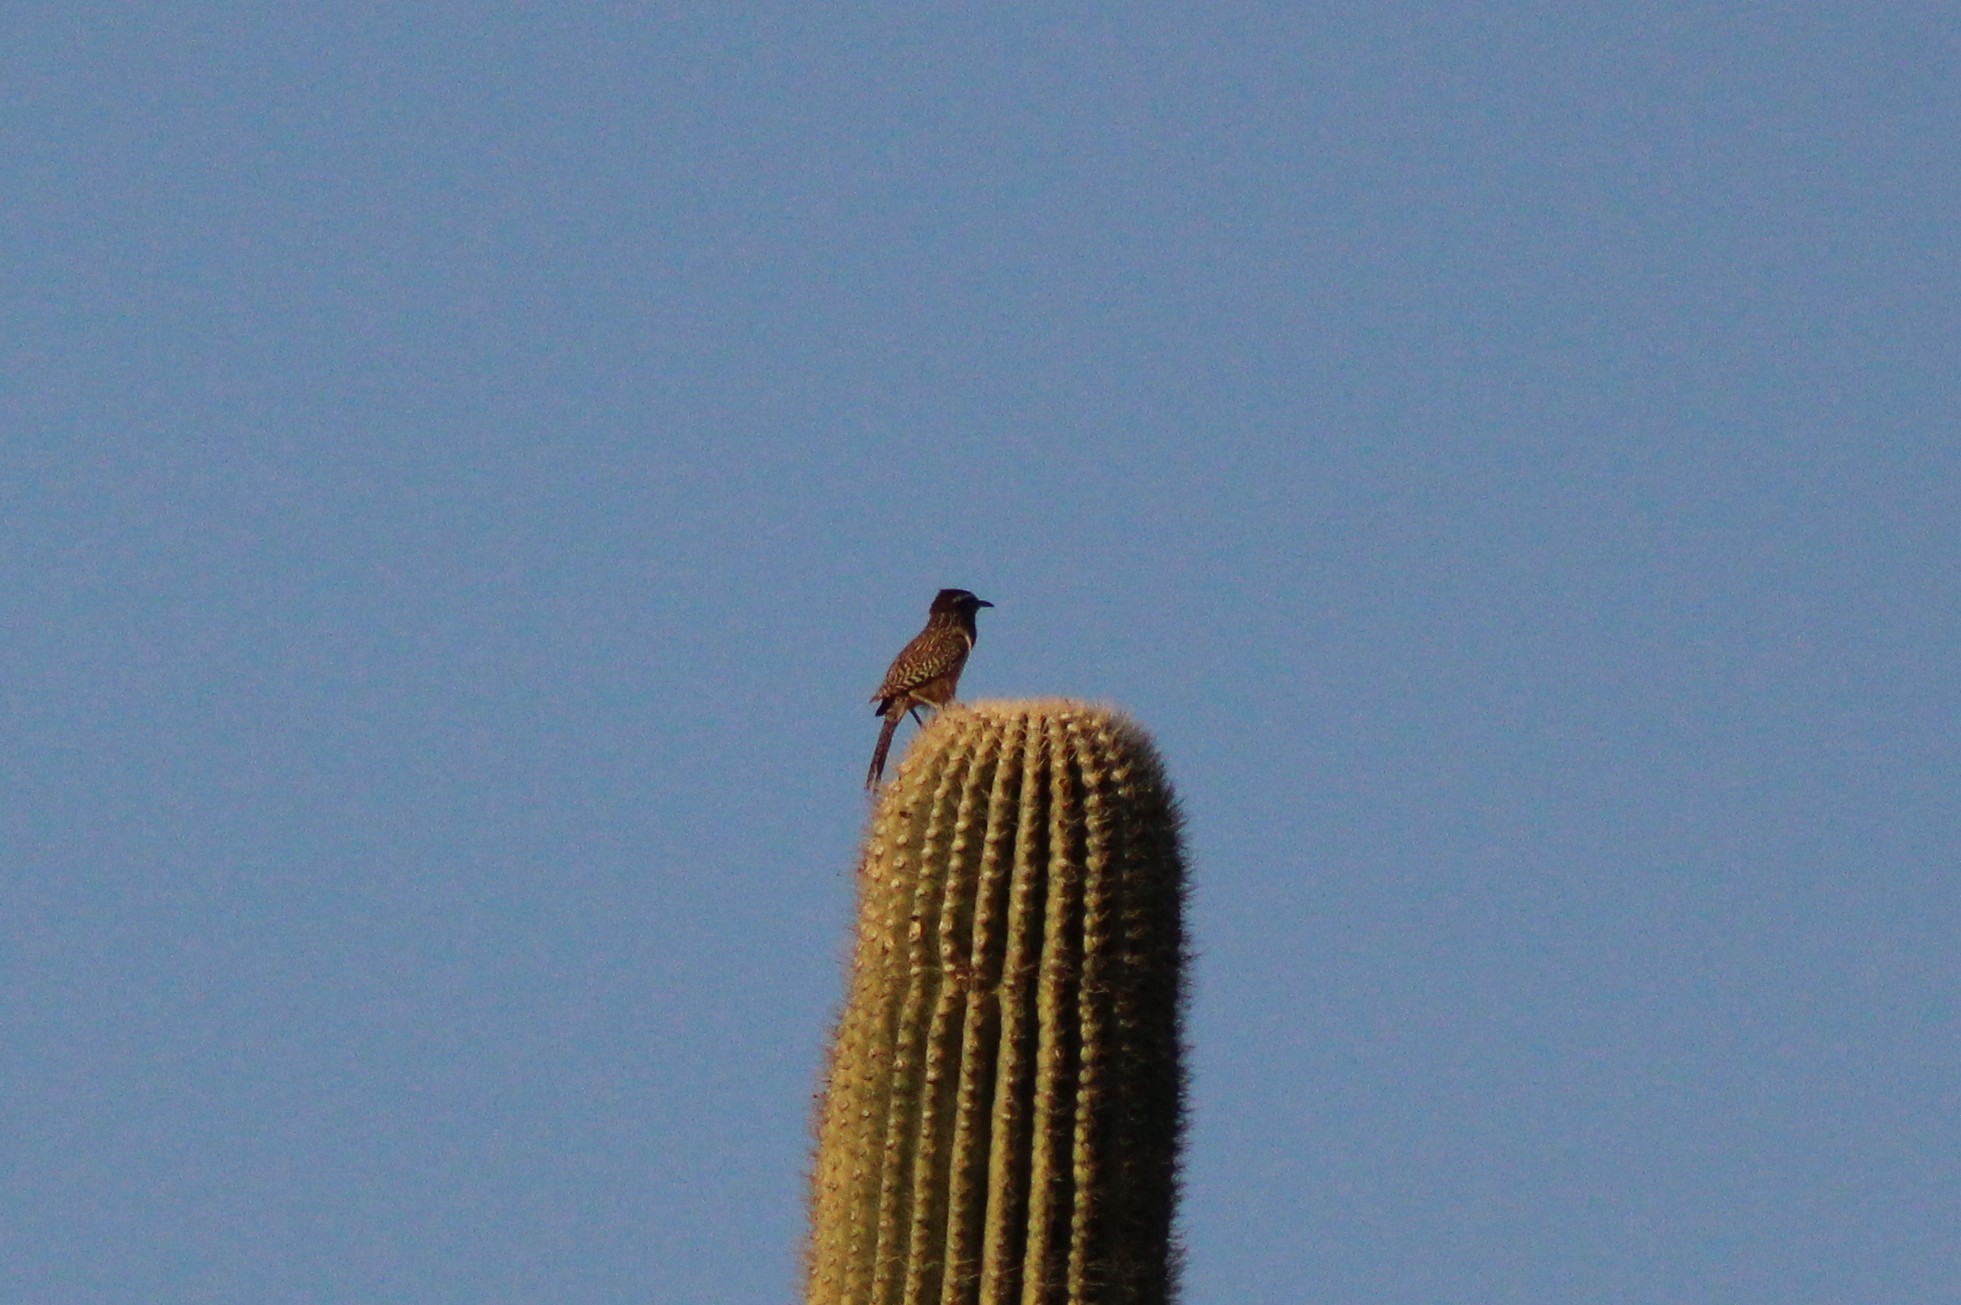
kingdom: Animalia
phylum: Chordata
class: Aves
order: Passeriformes
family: Troglodytidae
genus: Campylorhynchus
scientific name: Campylorhynchus brunneicapillus
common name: Cactus wren
